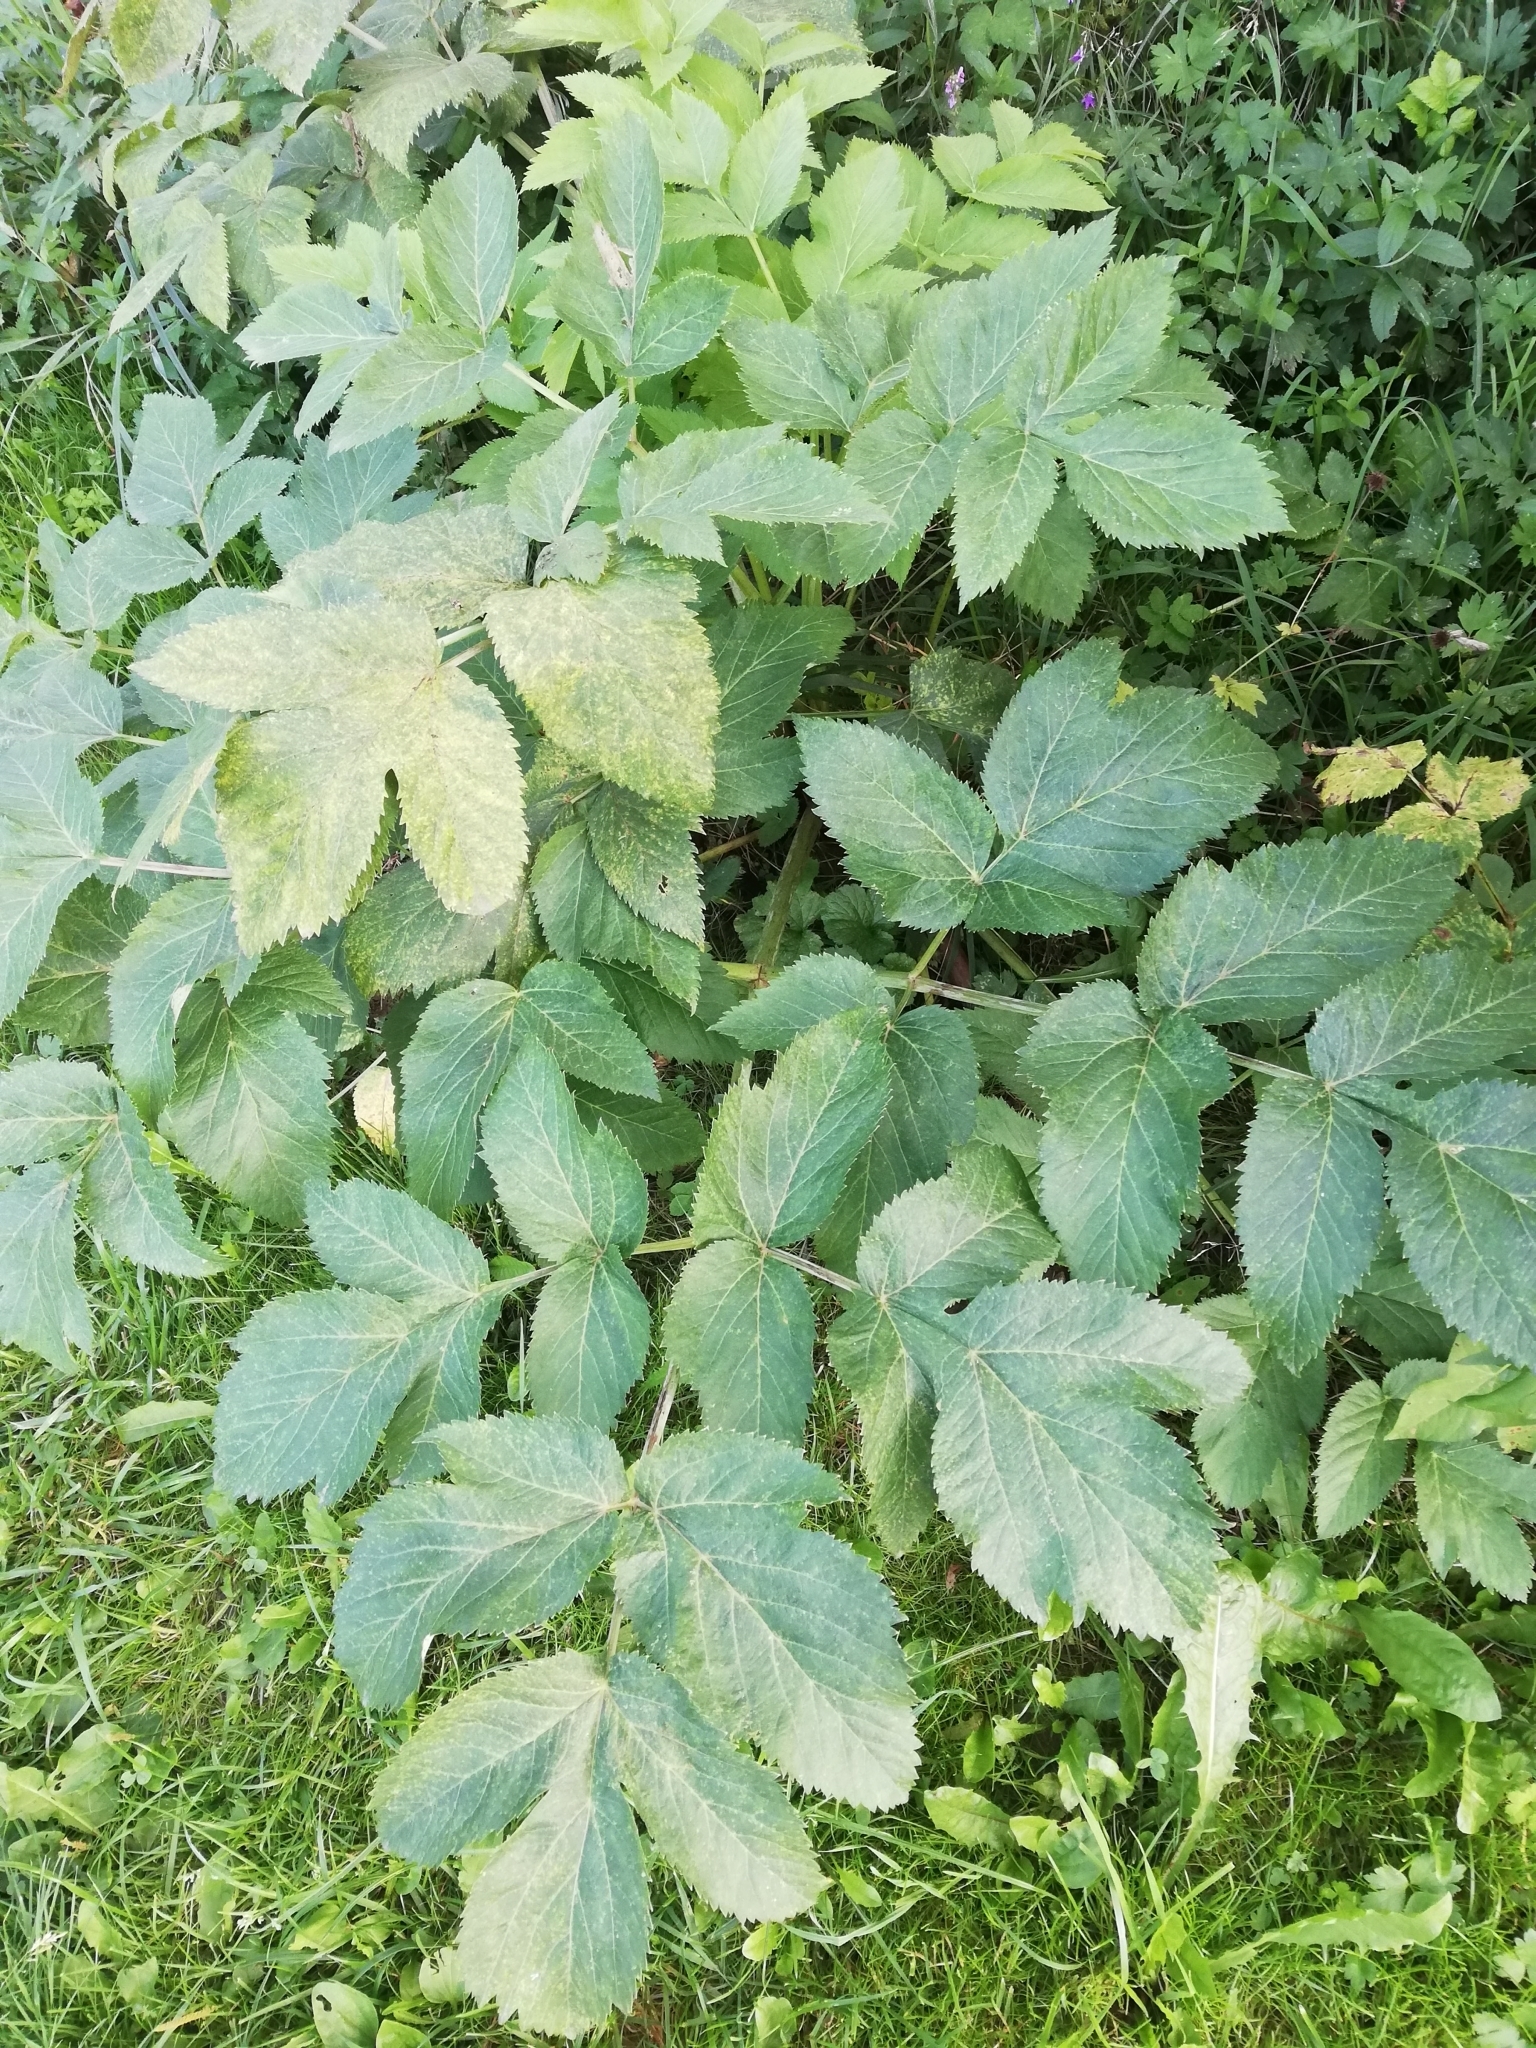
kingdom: Plantae
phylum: Tracheophyta
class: Magnoliopsida
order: Apiales
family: Apiaceae
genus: Angelica
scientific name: Angelica archangelica
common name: Garden angelica
